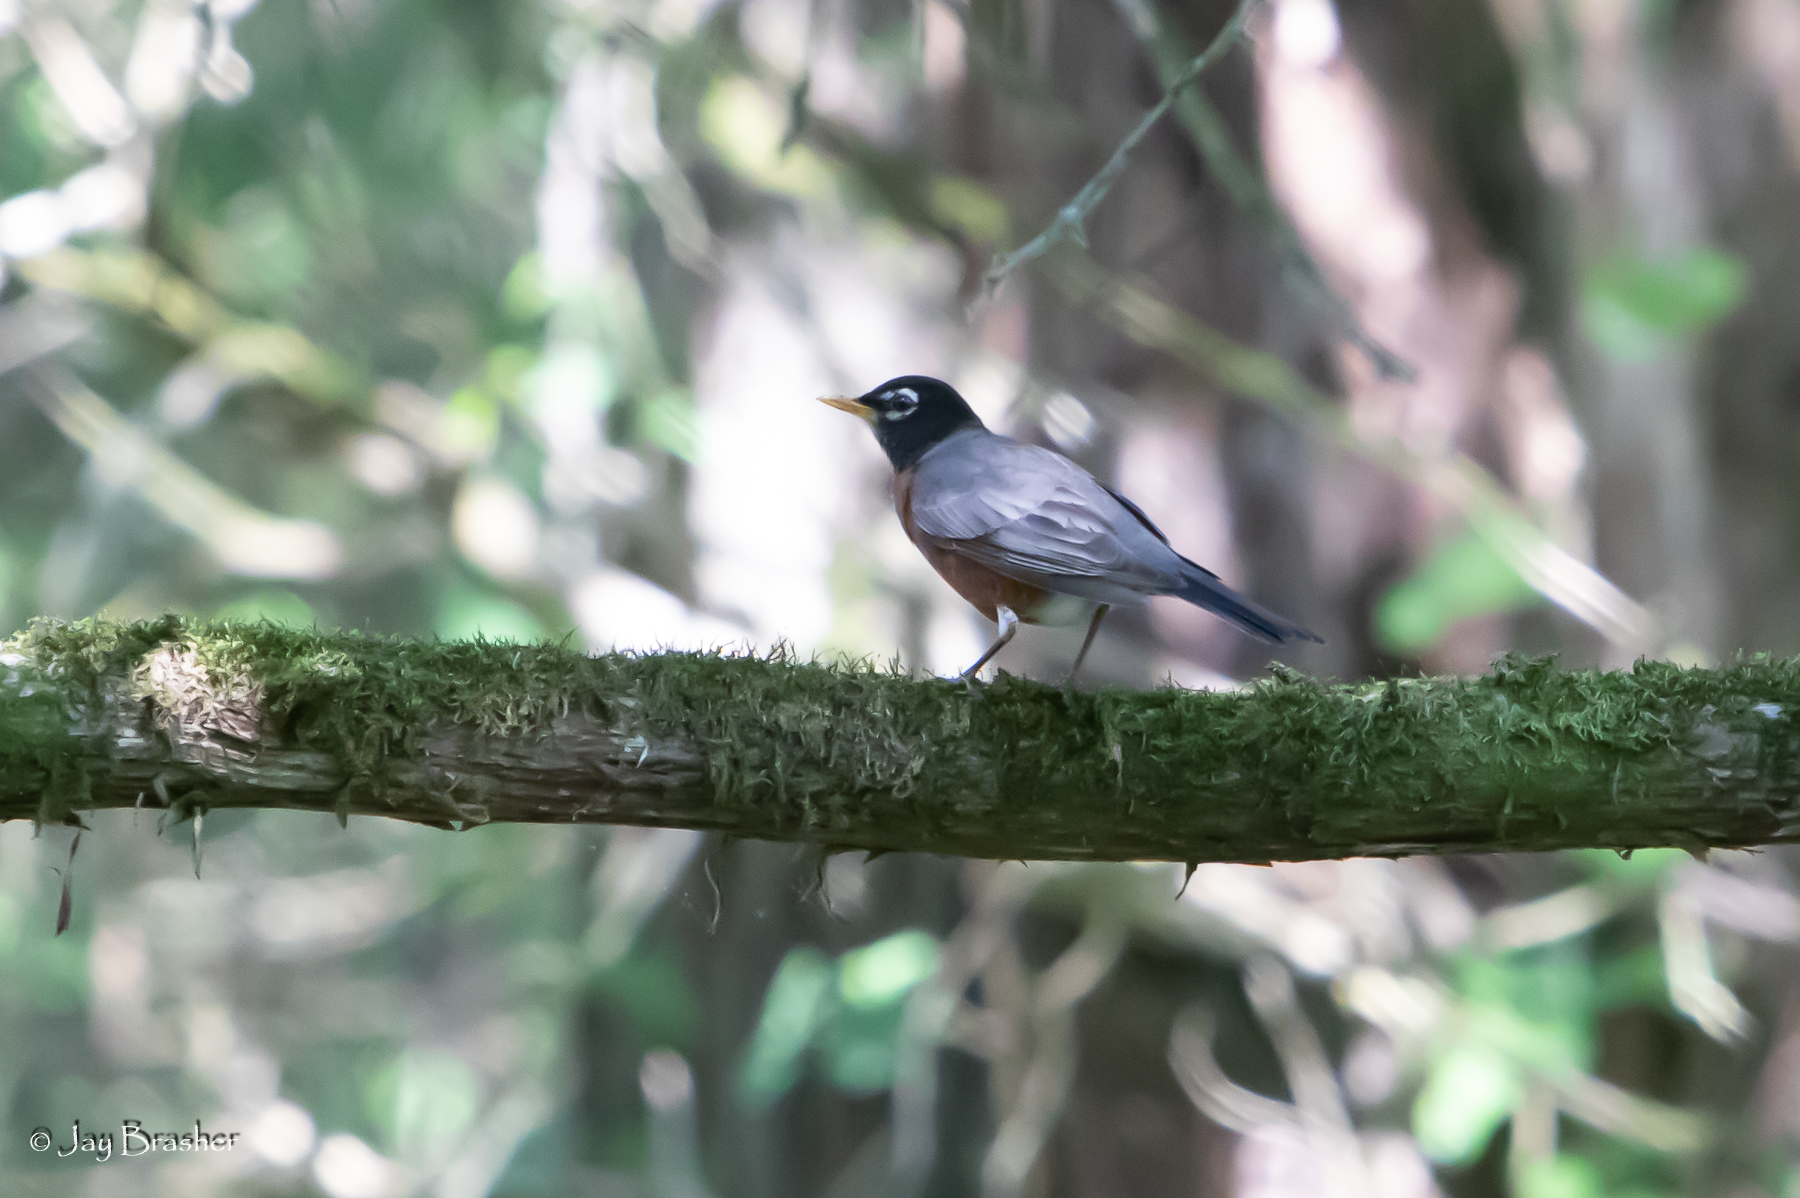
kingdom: Animalia
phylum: Chordata
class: Aves
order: Passeriformes
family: Turdidae
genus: Turdus
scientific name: Turdus migratorius
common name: American robin
